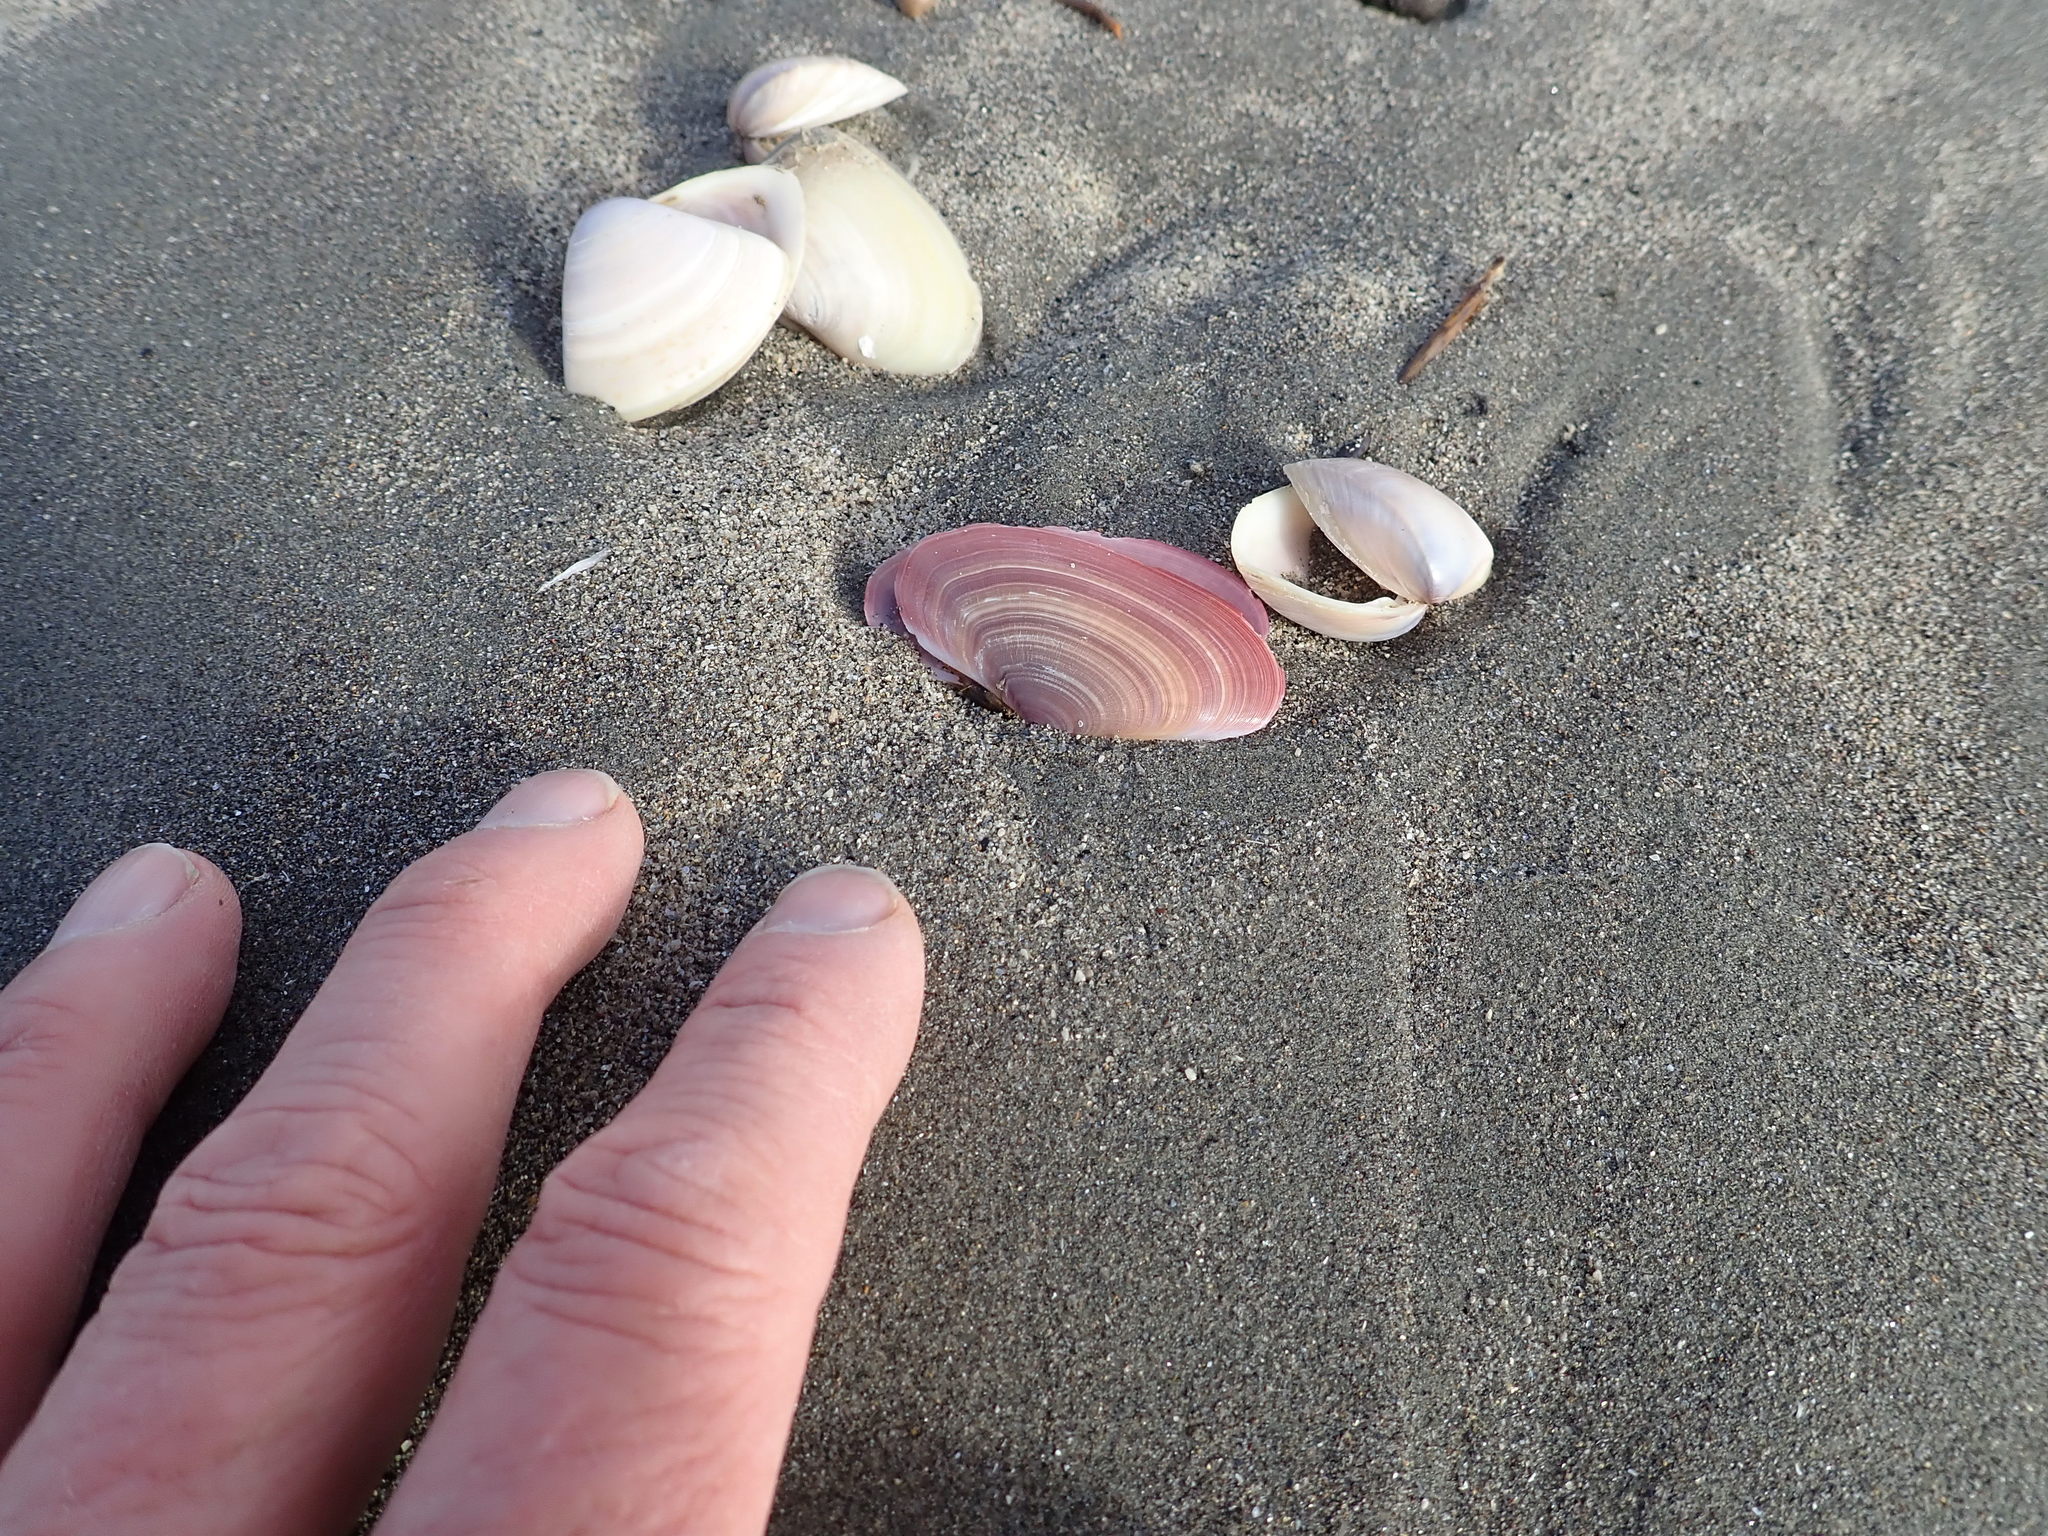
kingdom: Animalia
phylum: Mollusca
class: Bivalvia
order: Cardiida
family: Psammobiidae
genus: Gari
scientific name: Gari lineolata
